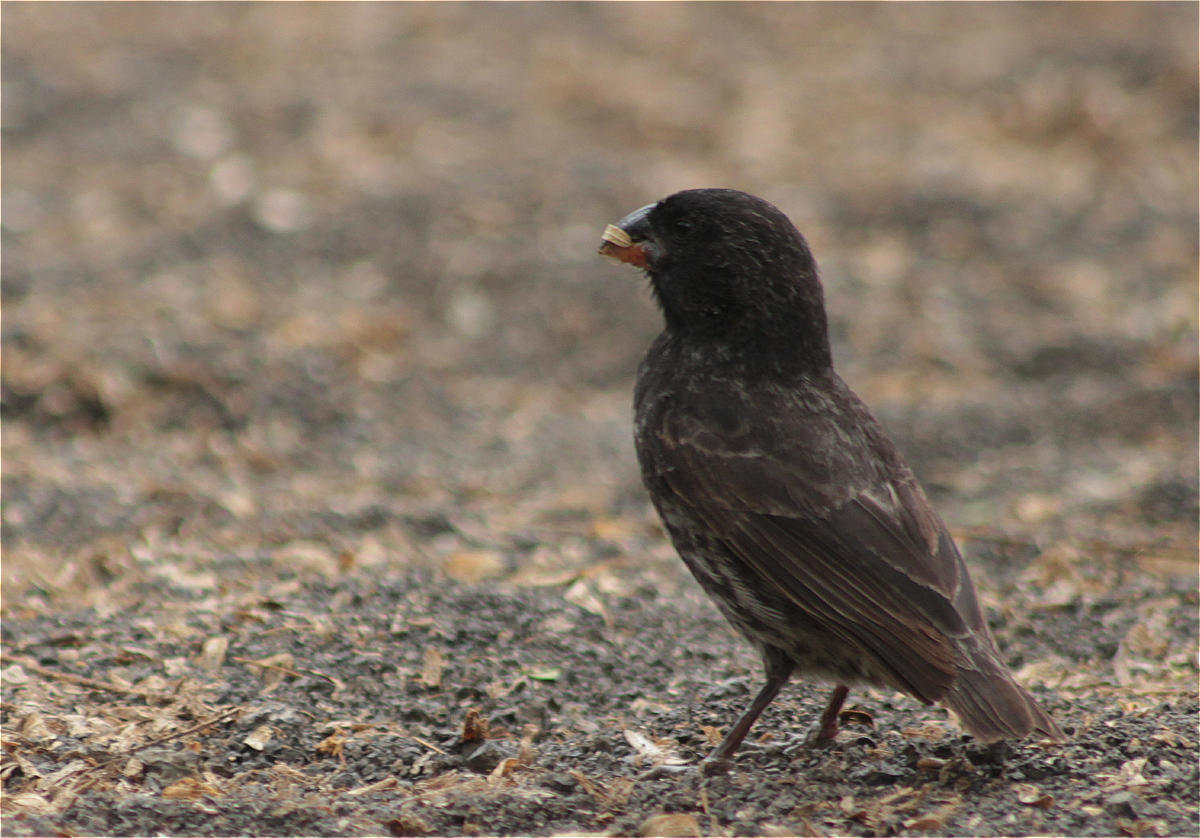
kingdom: Animalia
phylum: Chordata
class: Aves
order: Passeriformes
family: Thraupidae
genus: Geospiza
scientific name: Geospiza fortis
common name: Medium ground finch
